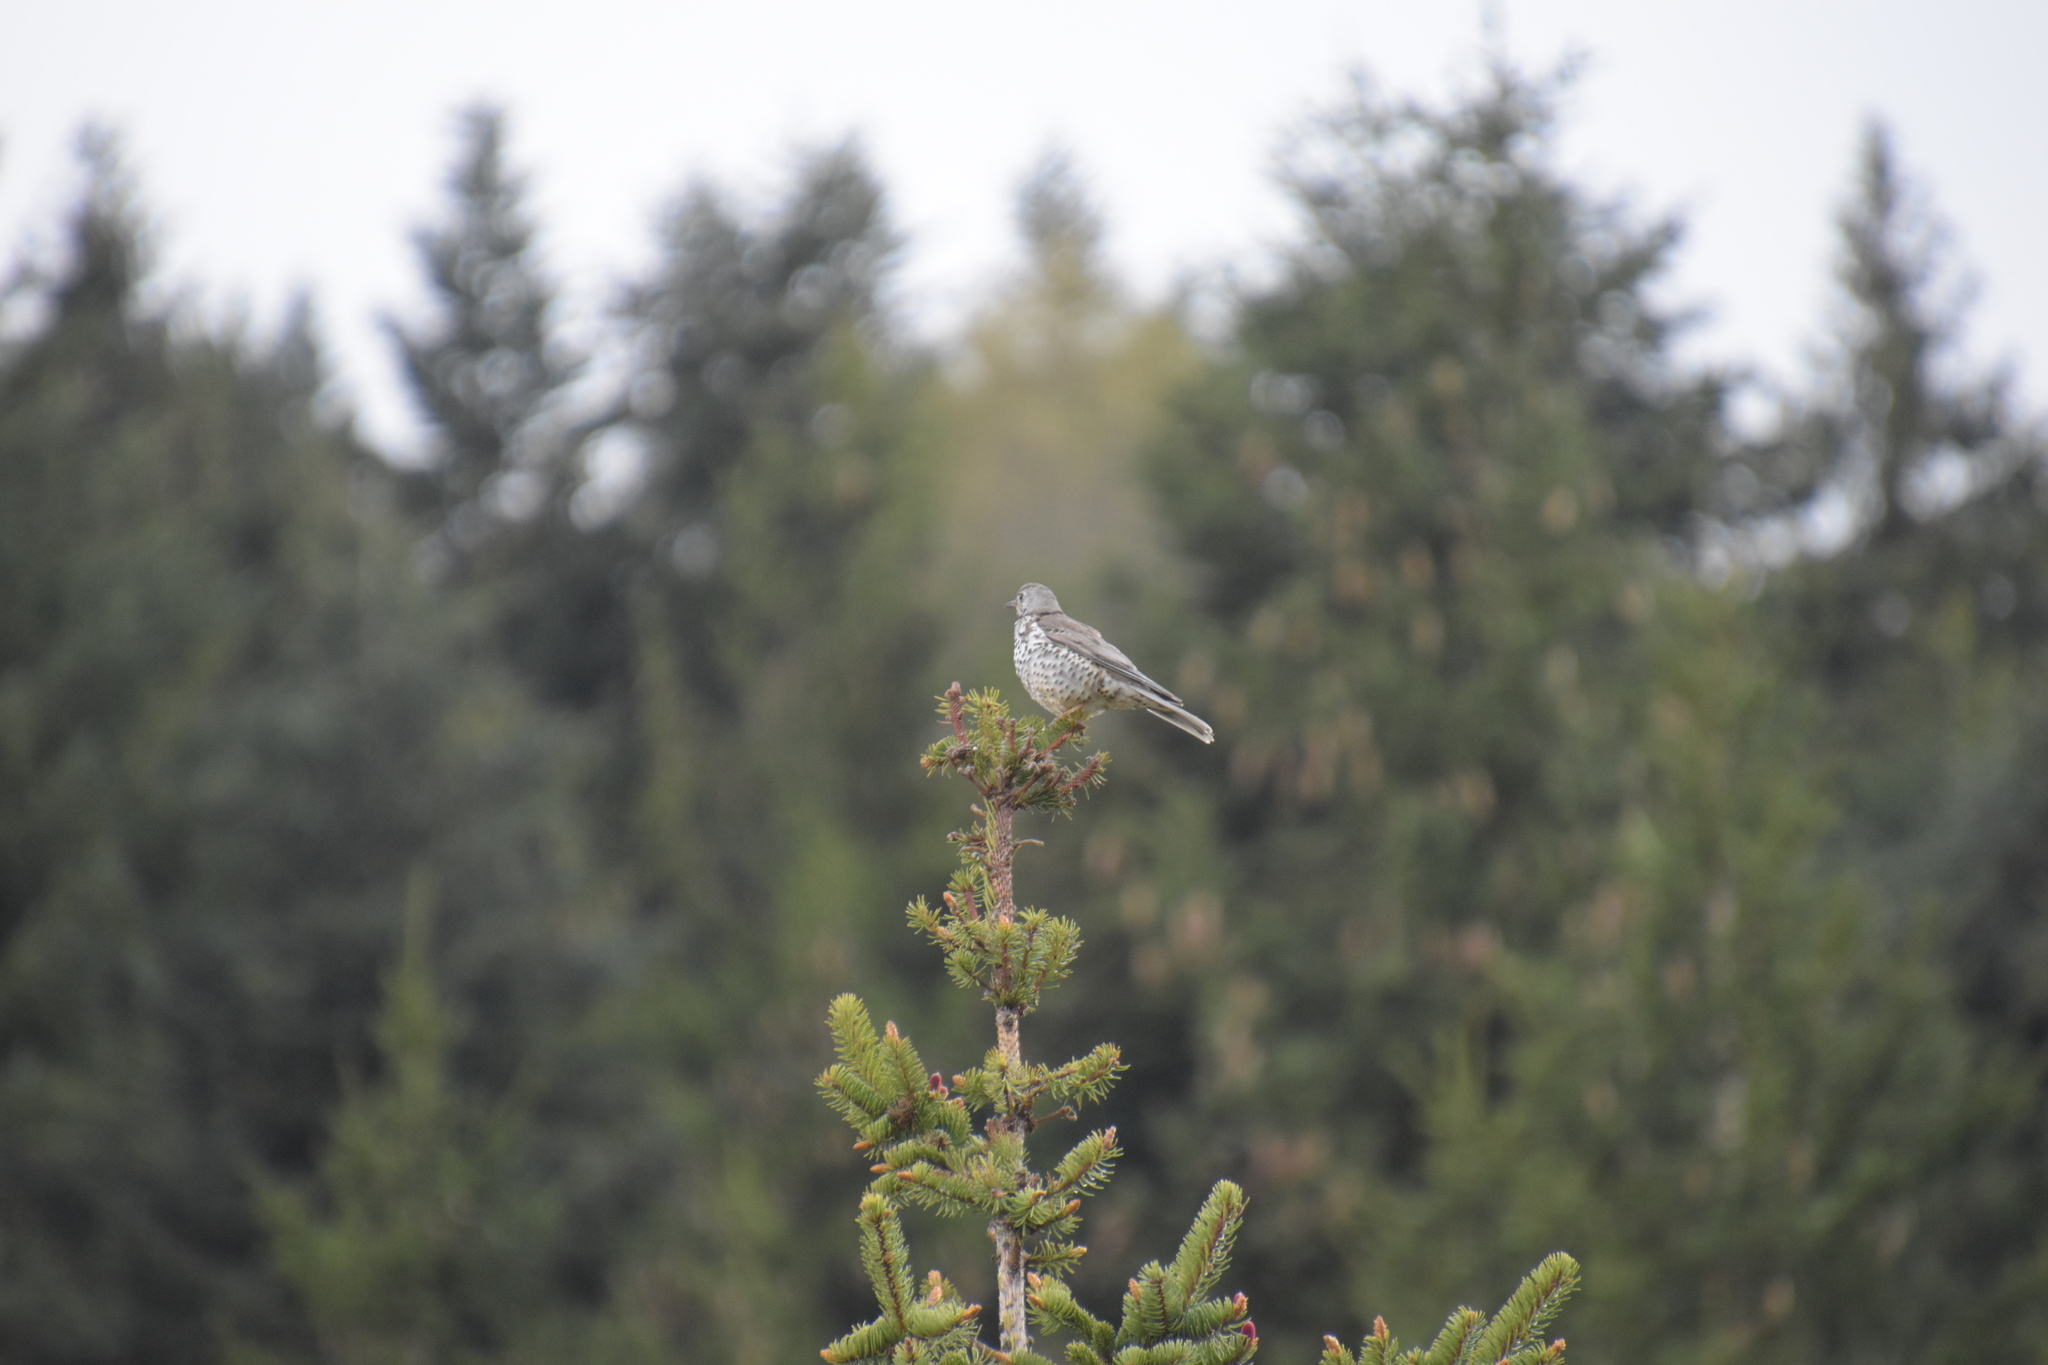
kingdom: Animalia
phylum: Chordata
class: Aves
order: Passeriformes
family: Turdidae
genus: Turdus
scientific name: Turdus viscivorus
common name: Mistle thrush
